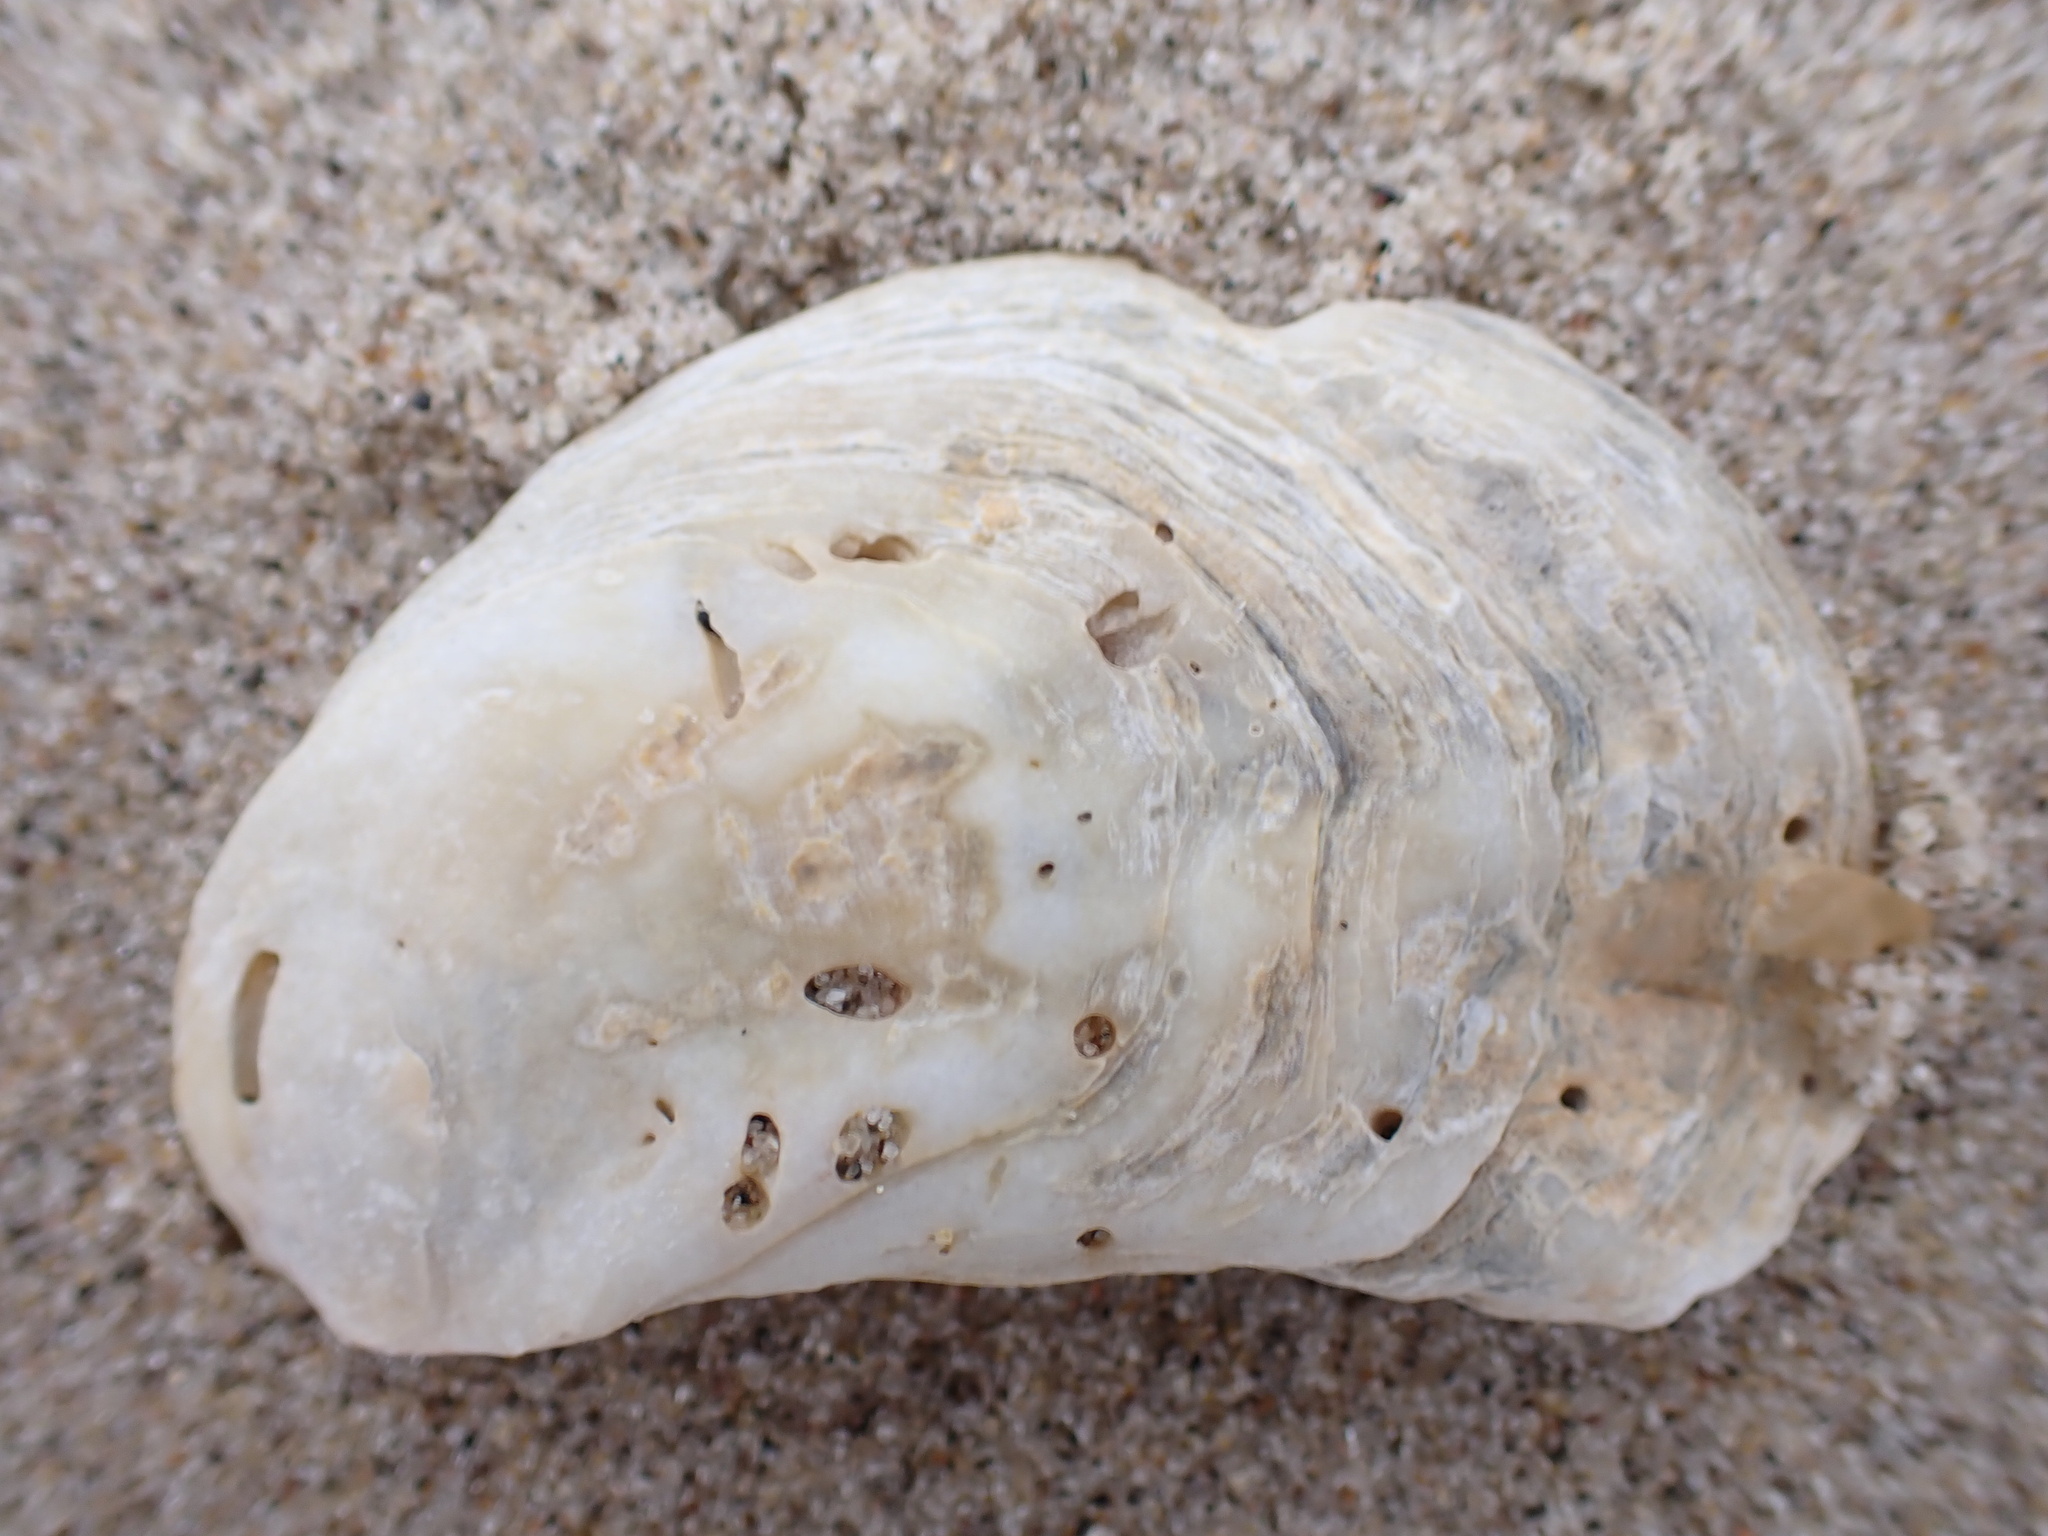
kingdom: Animalia
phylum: Mollusca
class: Bivalvia
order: Ostreida
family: Ostreidae
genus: Crassostrea
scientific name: Crassostrea virginica
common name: American oyster
